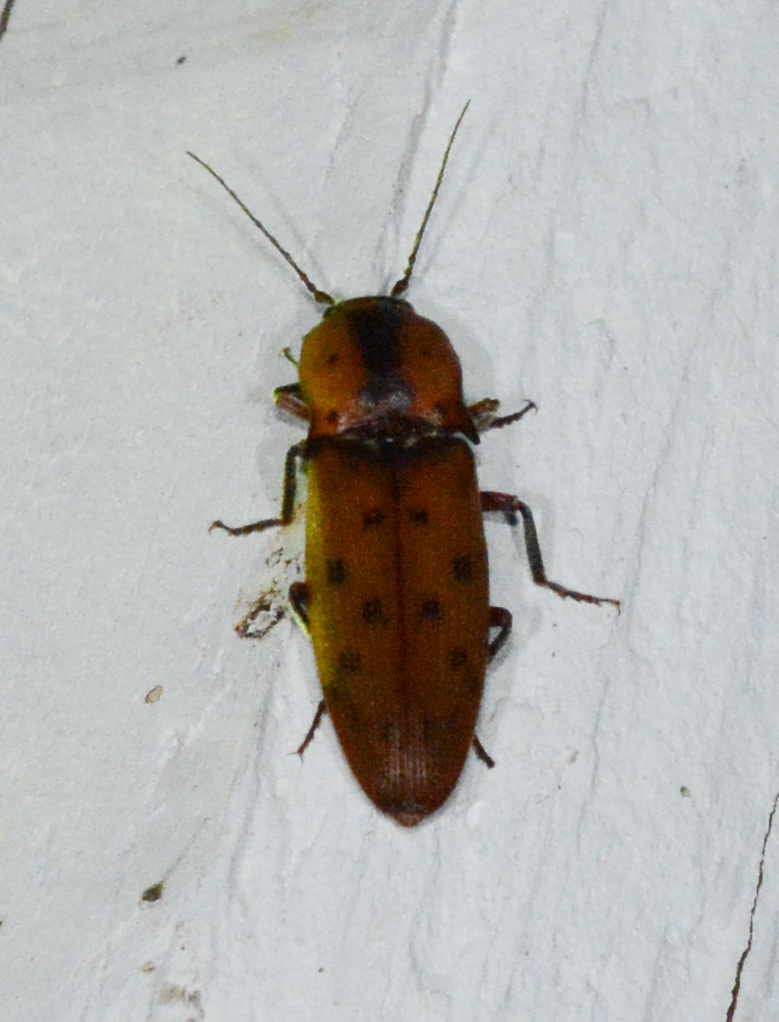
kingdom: Animalia
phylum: Arthropoda
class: Insecta
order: Coleoptera
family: Elateridae
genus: Monocrepidius
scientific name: Monocrepidius
